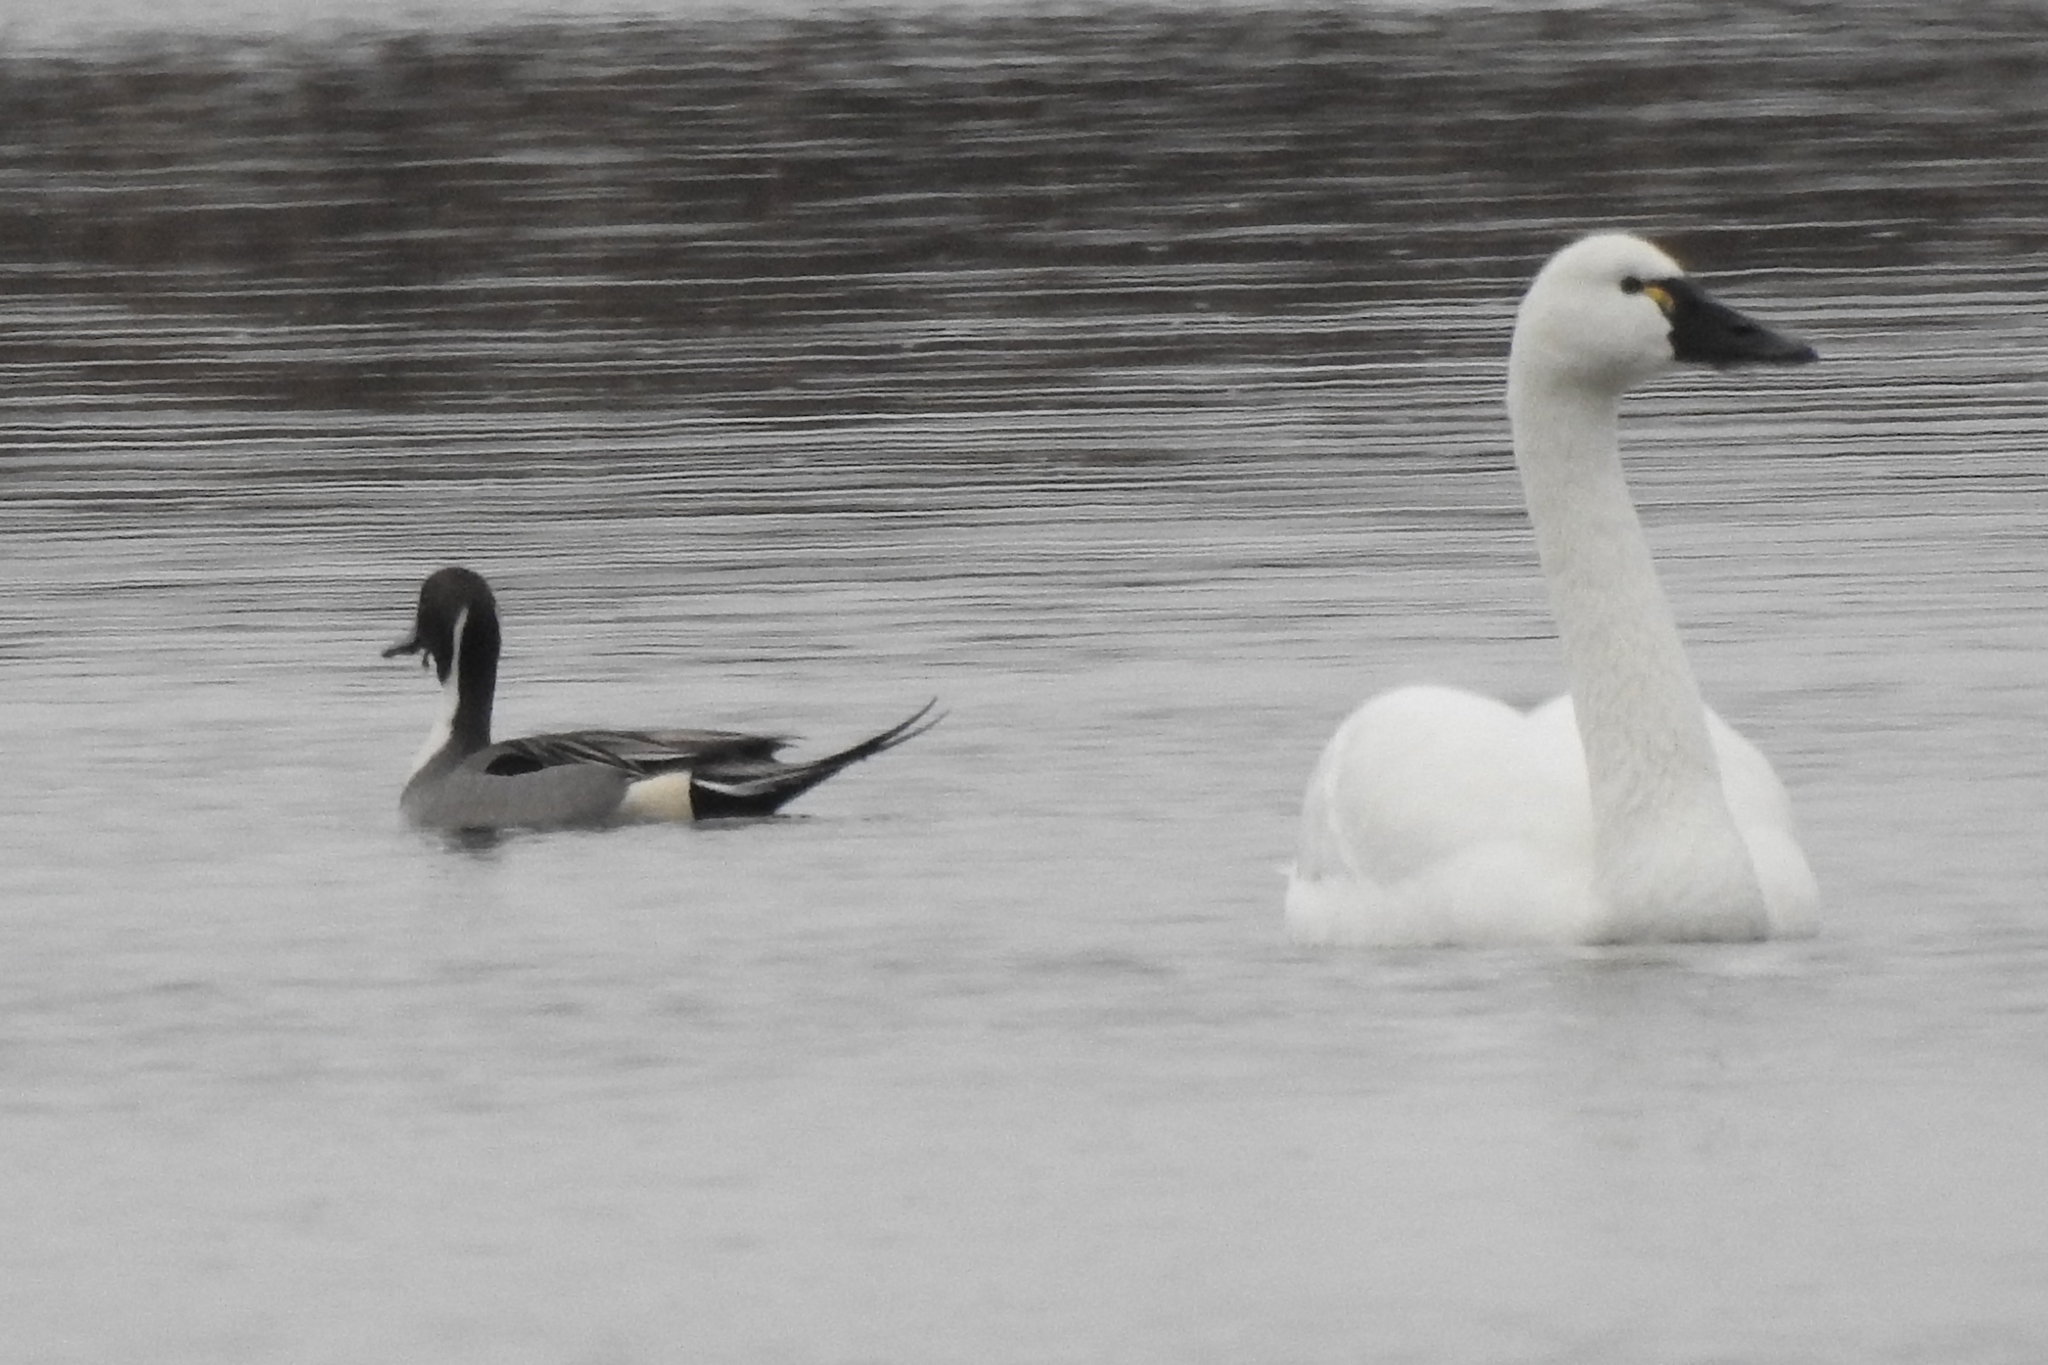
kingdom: Animalia
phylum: Chordata
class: Aves
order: Anseriformes
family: Anatidae
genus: Cygnus
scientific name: Cygnus columbianus
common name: Tundra swan
